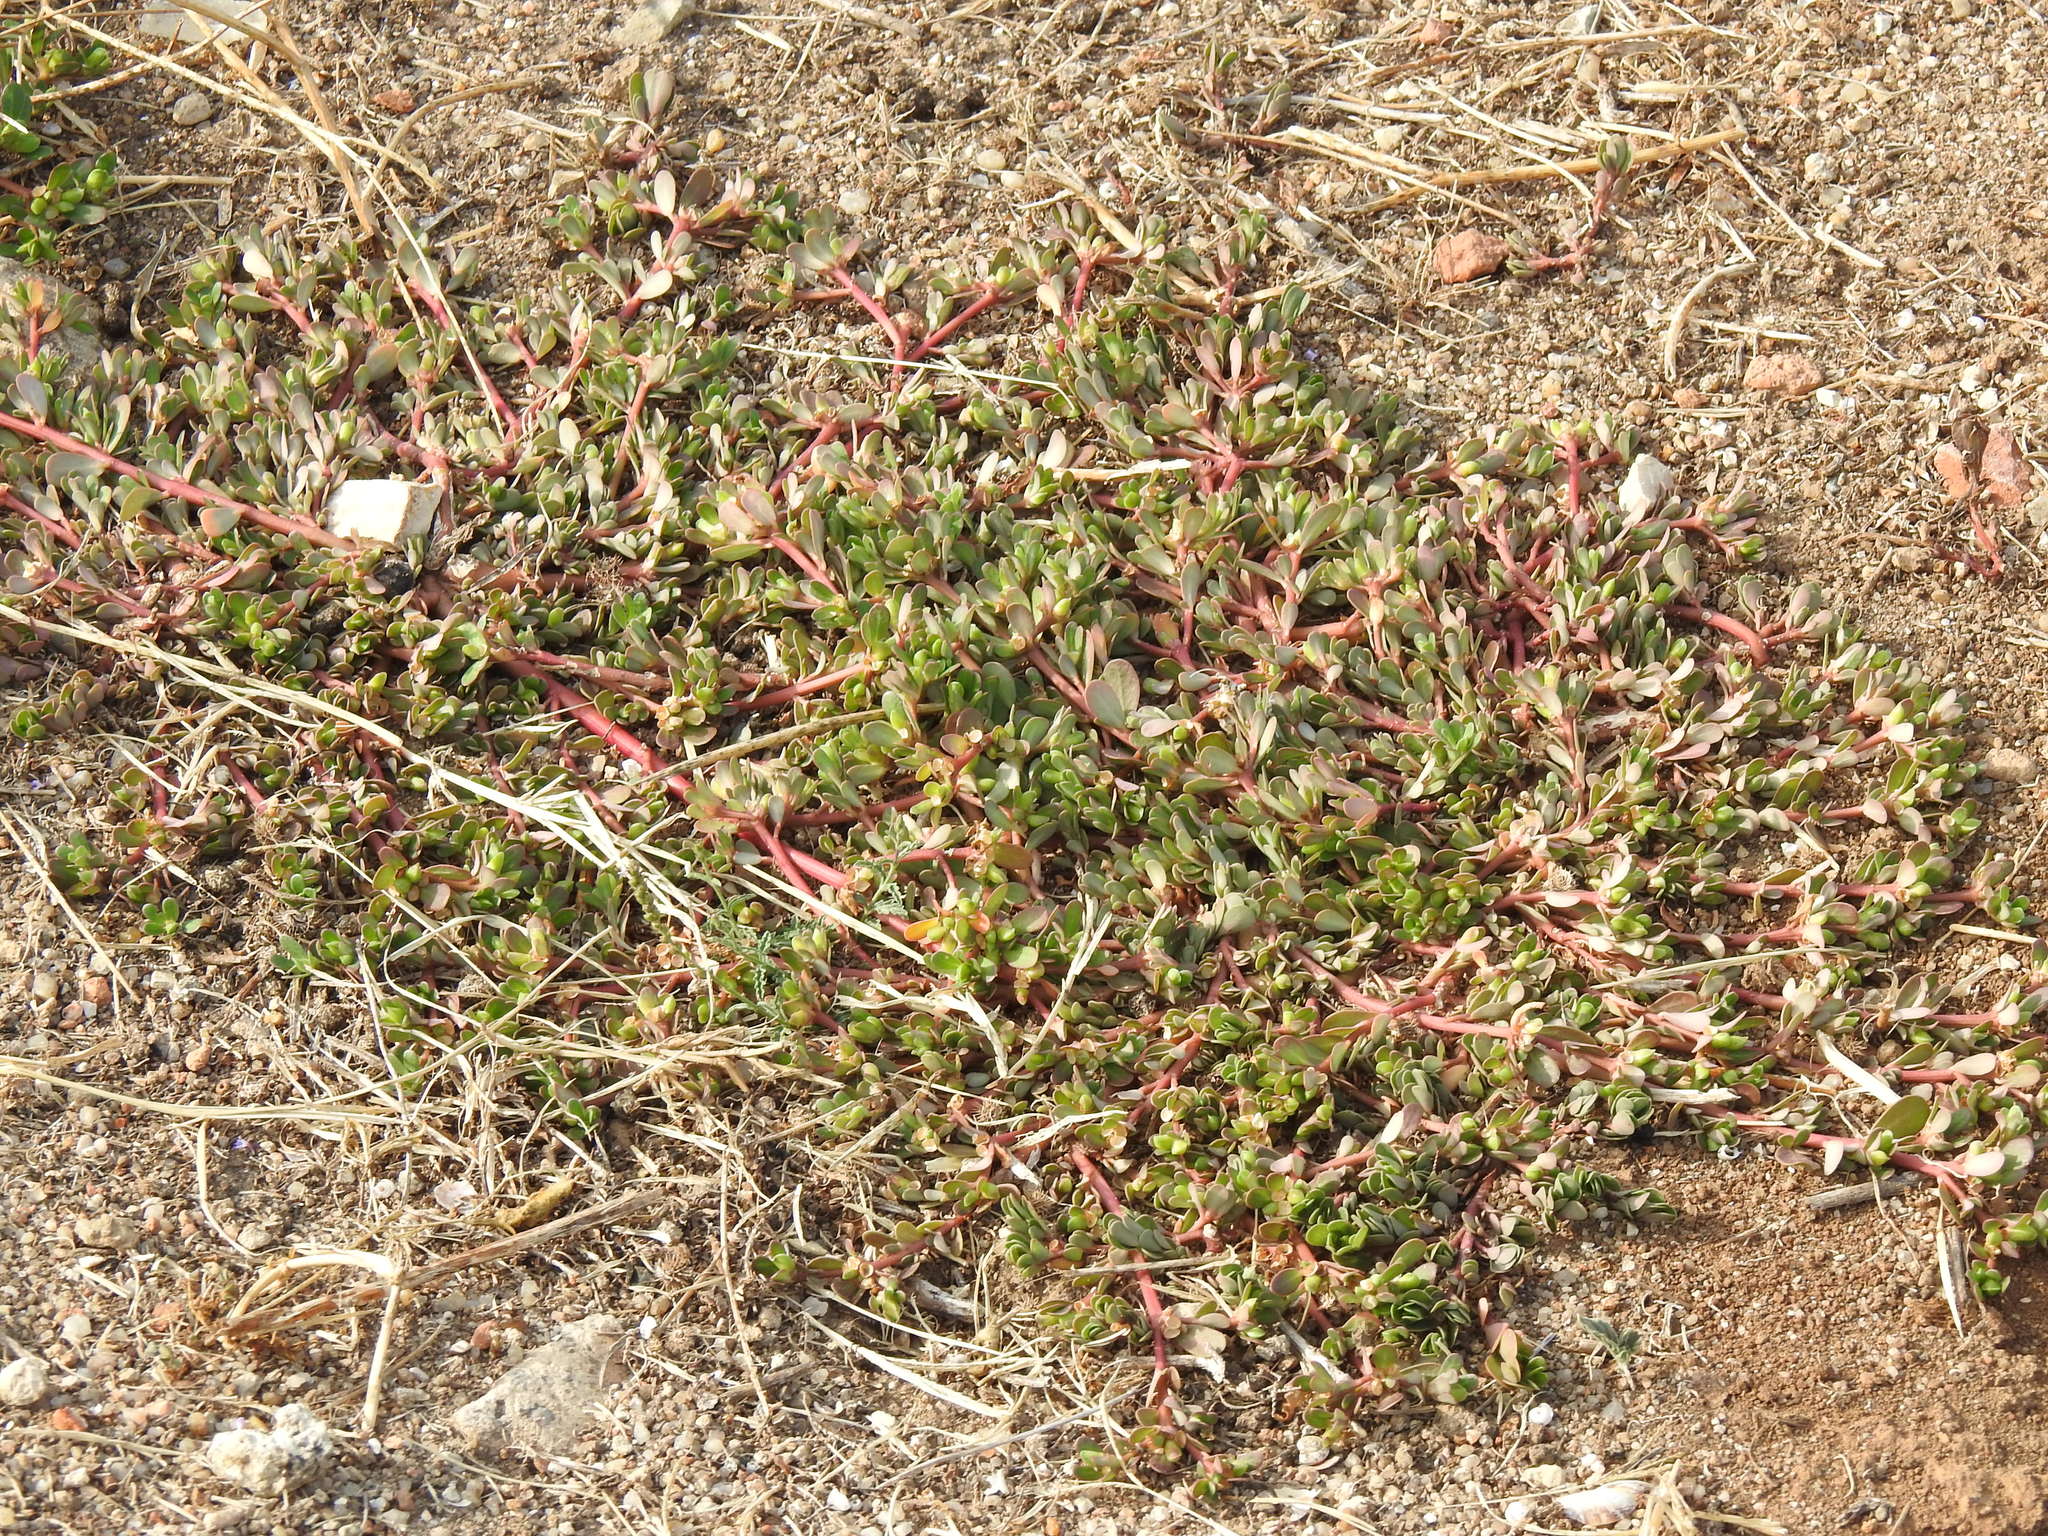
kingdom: Plantae
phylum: Tracheophyta
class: Magnoliopsida
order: Caryophyllales
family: Portulacaceae
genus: Portulaca
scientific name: Portulaca oleracea
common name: Common purslane
